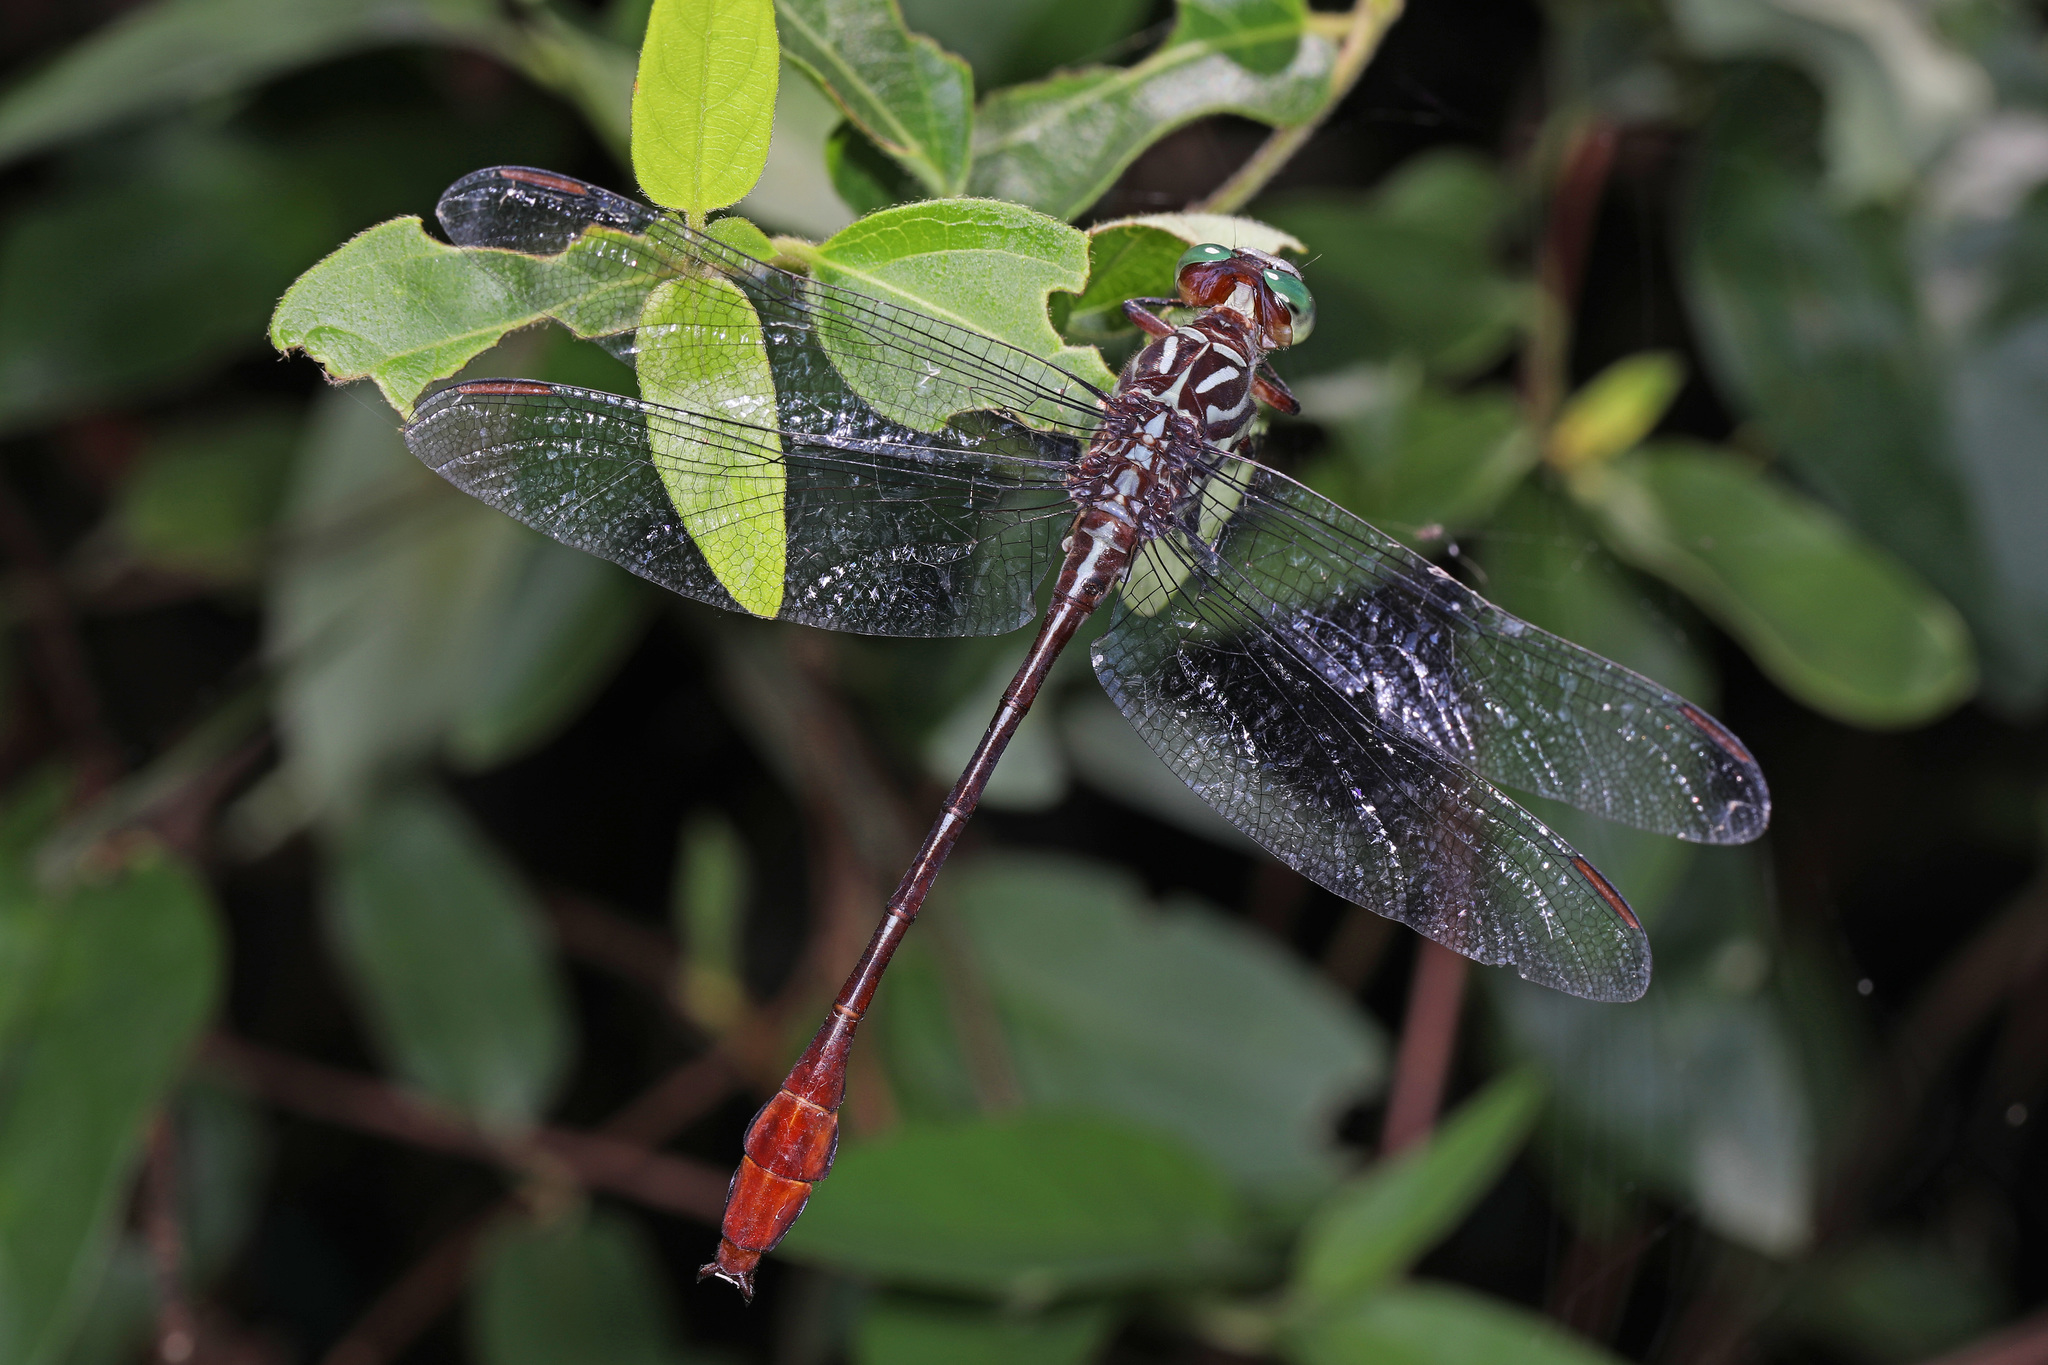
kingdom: Animalia
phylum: Arthropoda
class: Insecta
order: Odonata
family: Gomphidae
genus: Stylurus
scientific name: Stylurus plagiatus
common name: Russet-tipped clubtail
